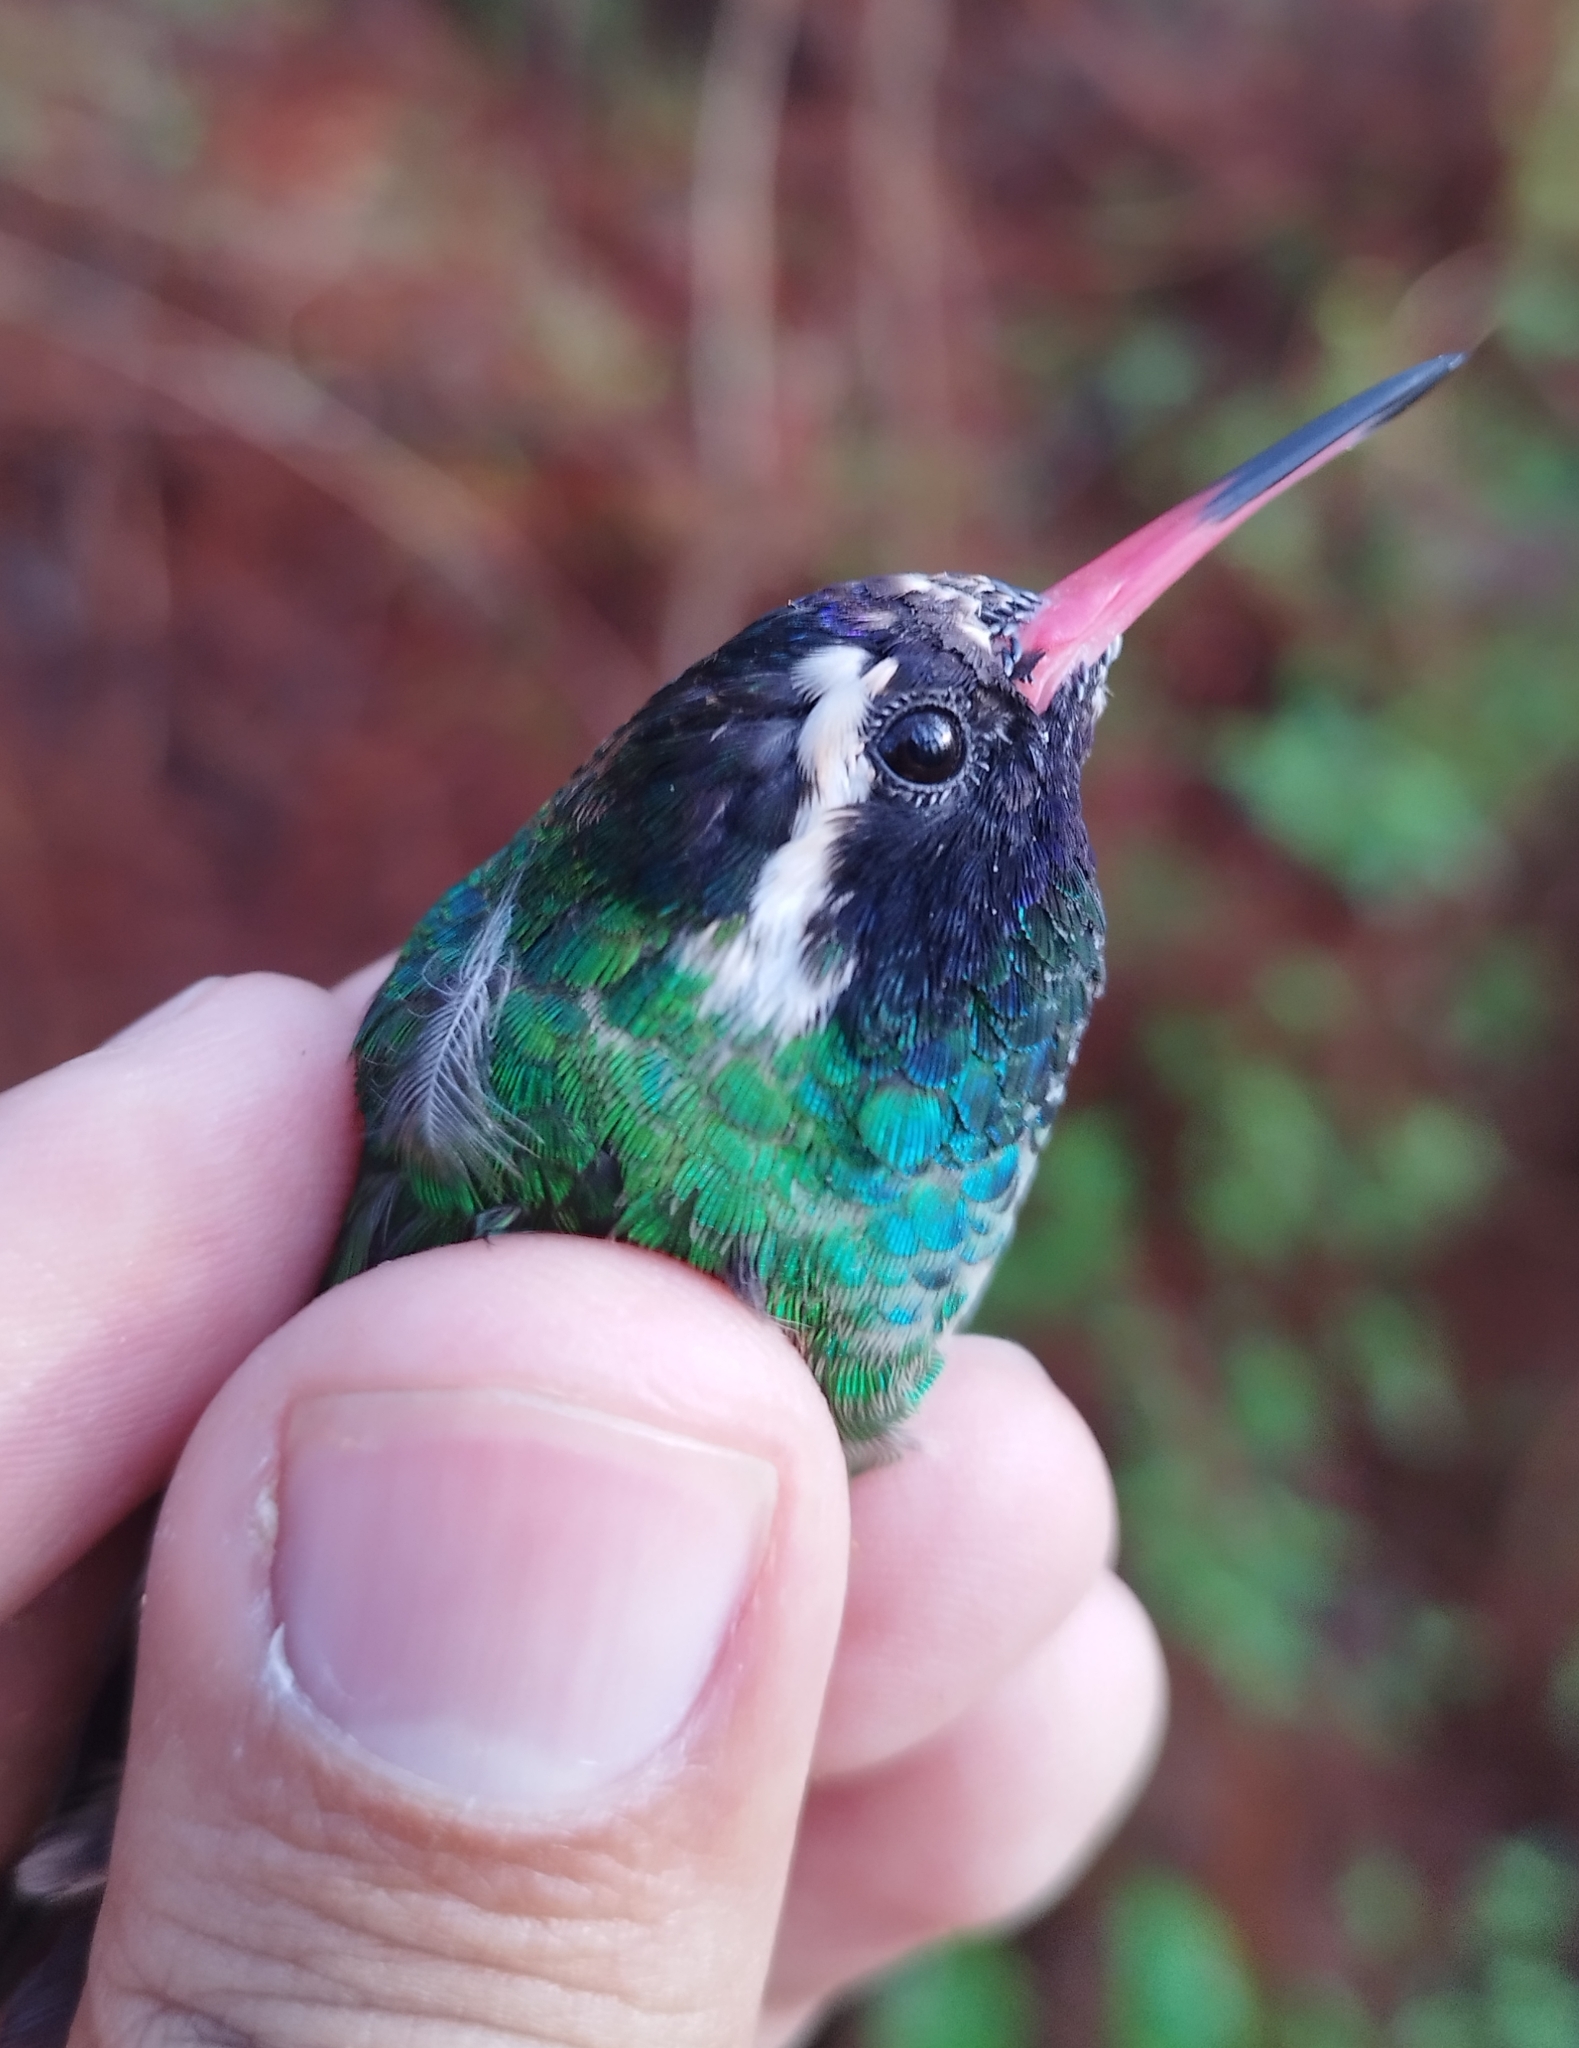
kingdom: Animalia
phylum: Chordata
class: Aves
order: Apodiformes
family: Trochilidae
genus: Basilinna
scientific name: Basilinna leucotis
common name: White-eared hummingbird
